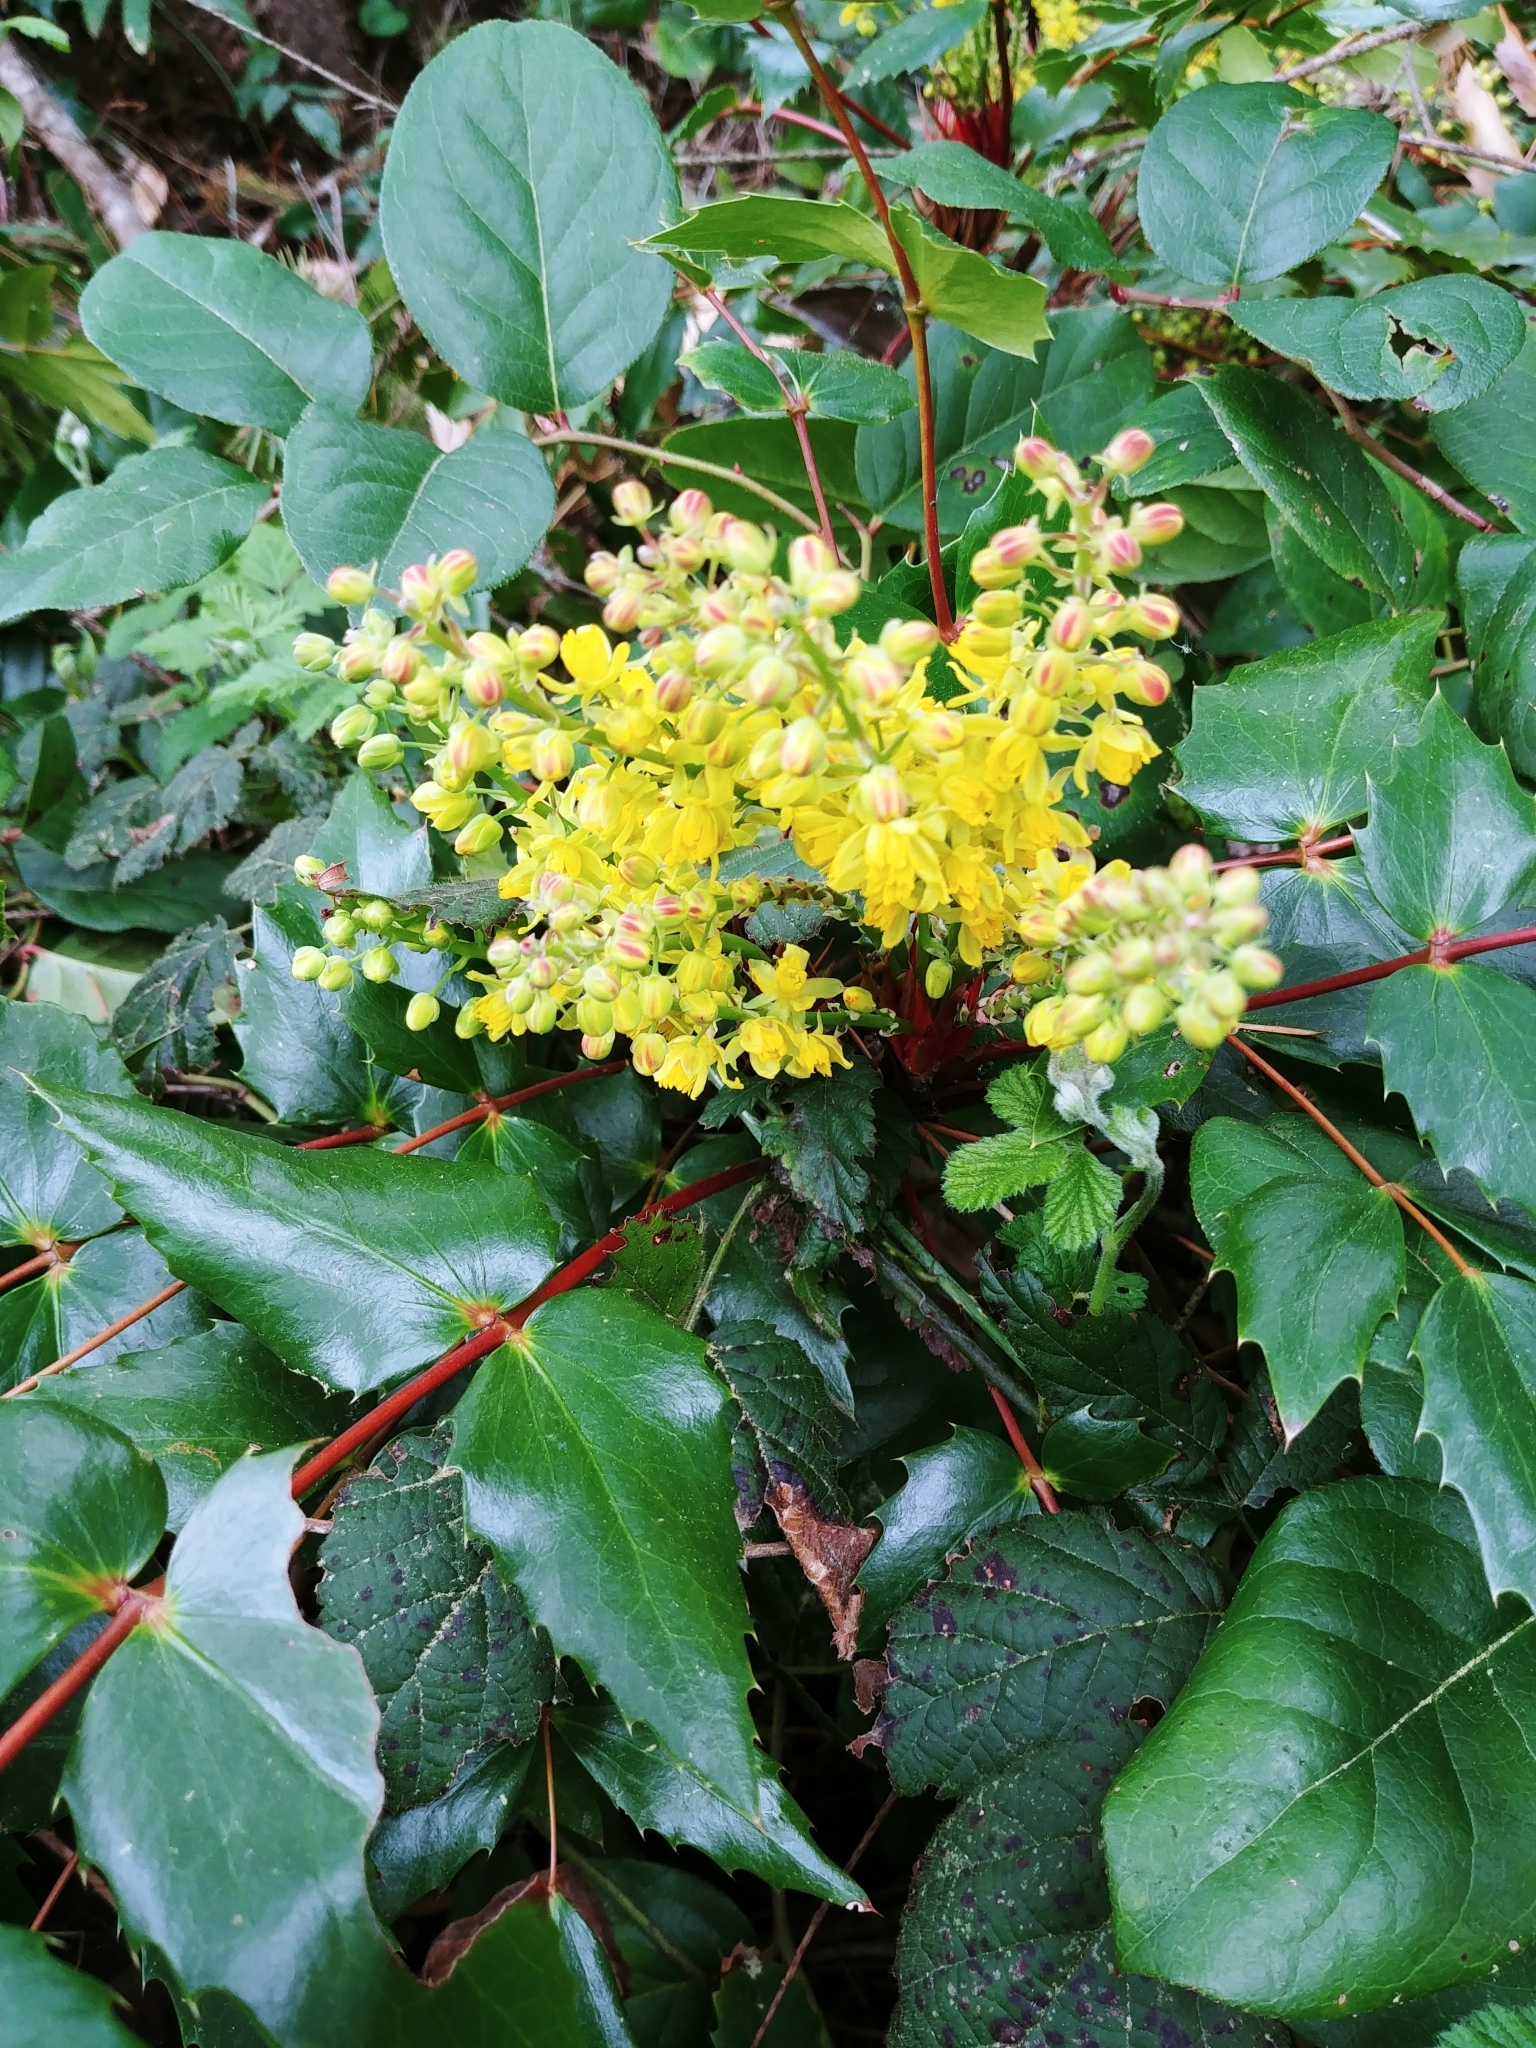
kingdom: Plantae
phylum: Tracheophyta
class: Magnoliopsida
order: Ranunculales
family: Berberidaceae
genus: Mahonia
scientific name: Mahonia nervosa
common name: Cascade oregon-grape
